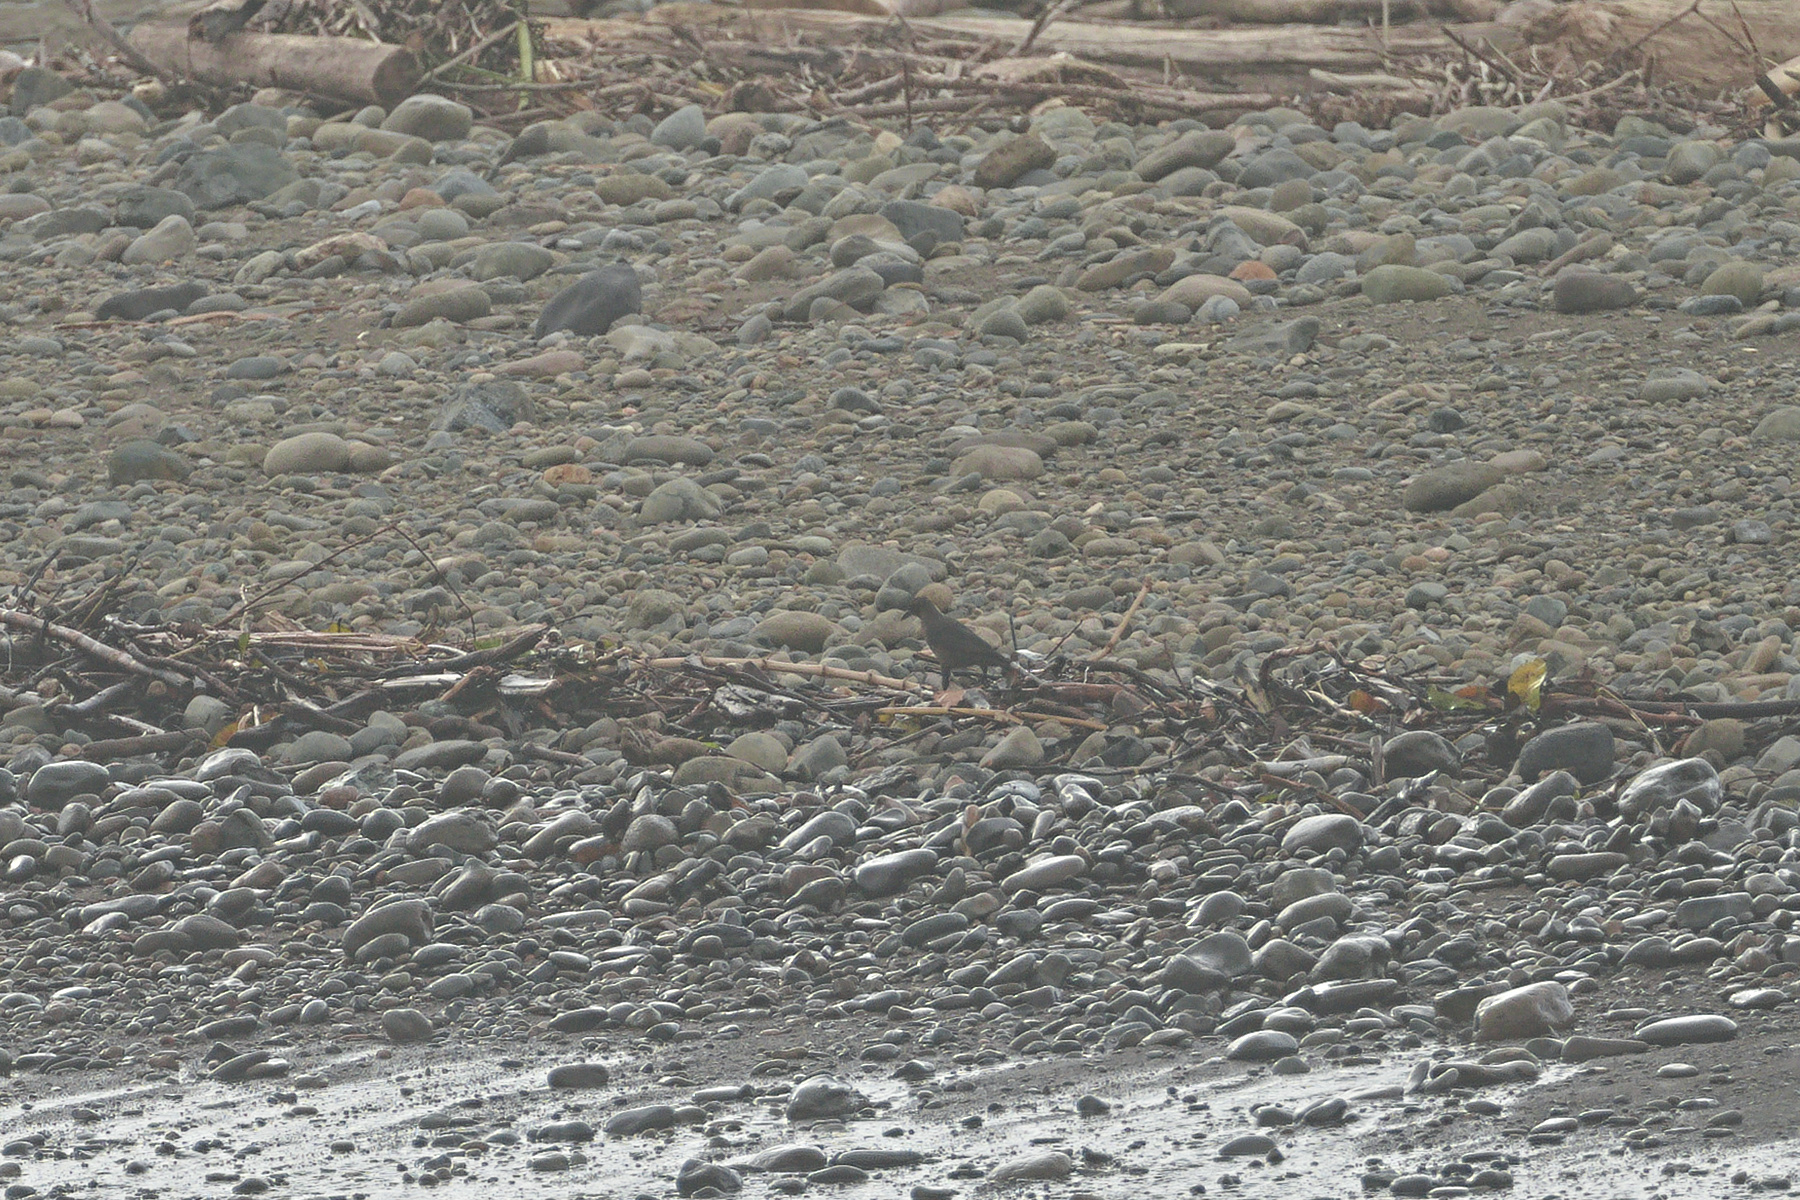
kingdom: Animalia
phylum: Chordata
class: Aves
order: Passeriformes
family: Icteridae
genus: Quiscalus
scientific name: Quiscalus mexicanus
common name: Great-tailed grackle
